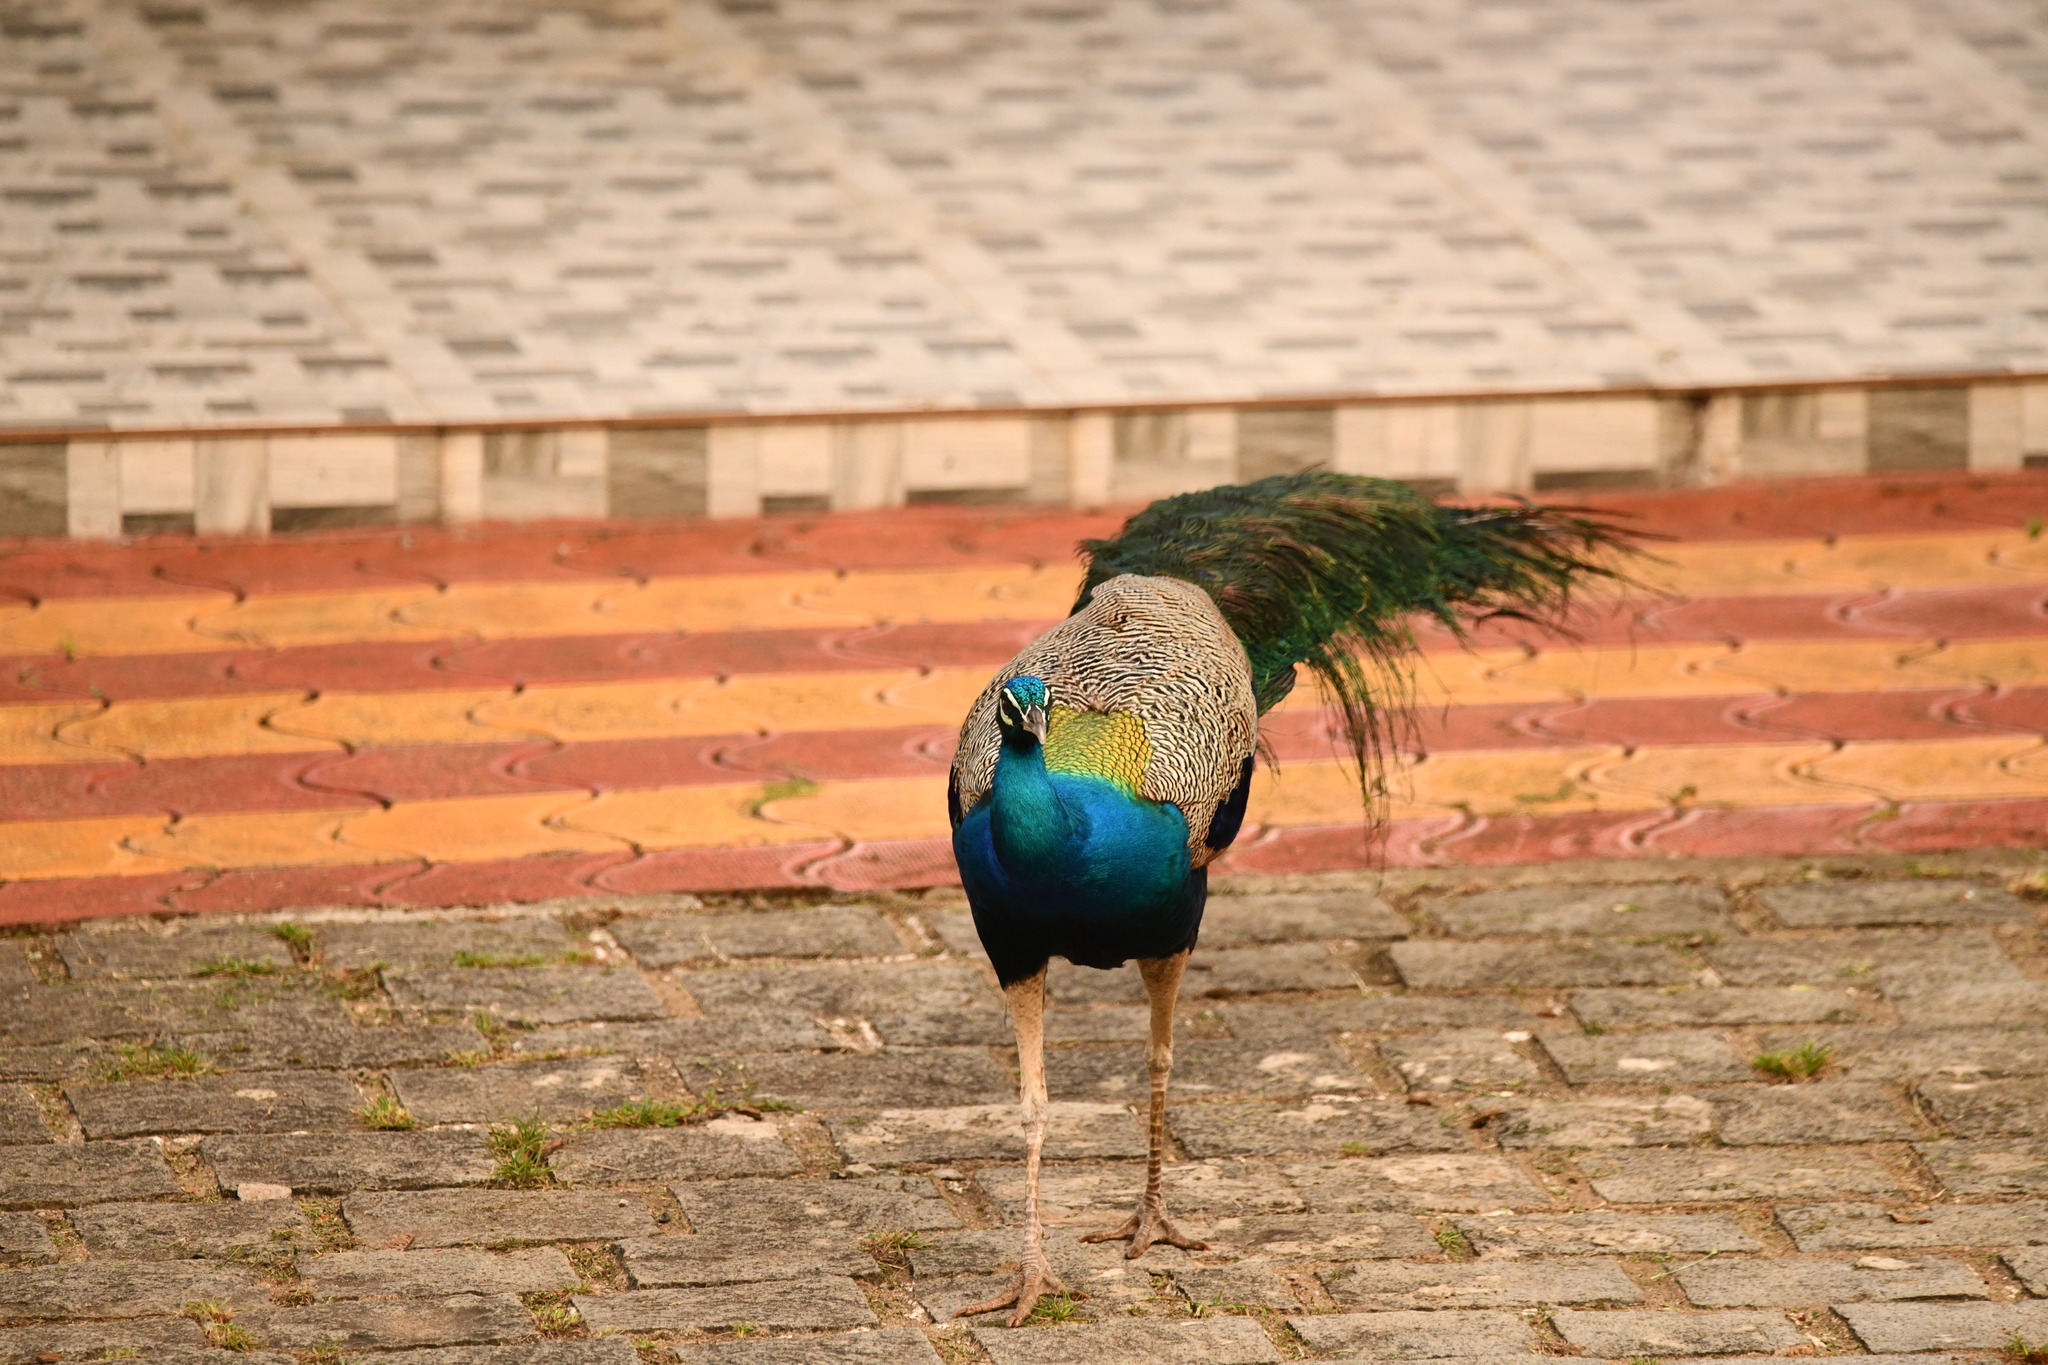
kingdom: Animalia
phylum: Chordata
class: Aves
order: Galliformes
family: Phasianidae
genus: Pavo
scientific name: Pavo cristatus
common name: Indian peafowl
